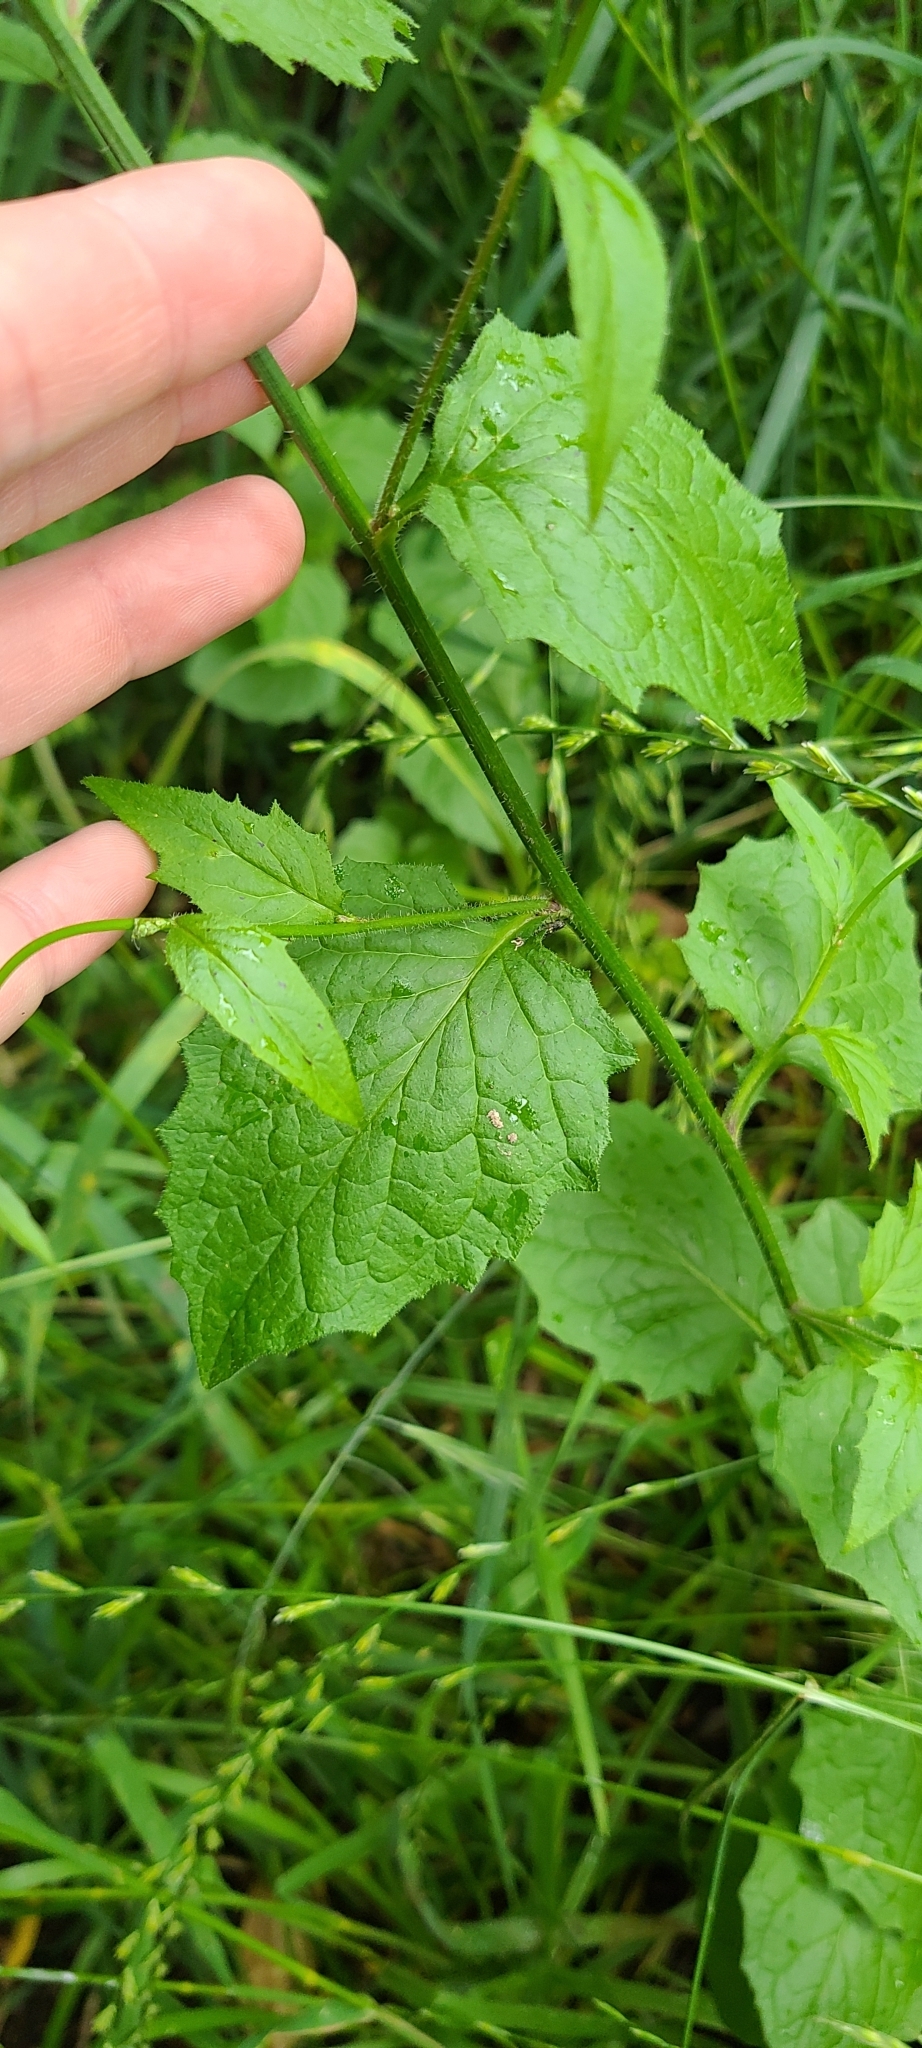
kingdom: Plantae
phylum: Tracheophyta
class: Magnoliopsida
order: Asterales
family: Asteraceae
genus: Lapsana
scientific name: Lapsana communis
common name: Nipplewort
